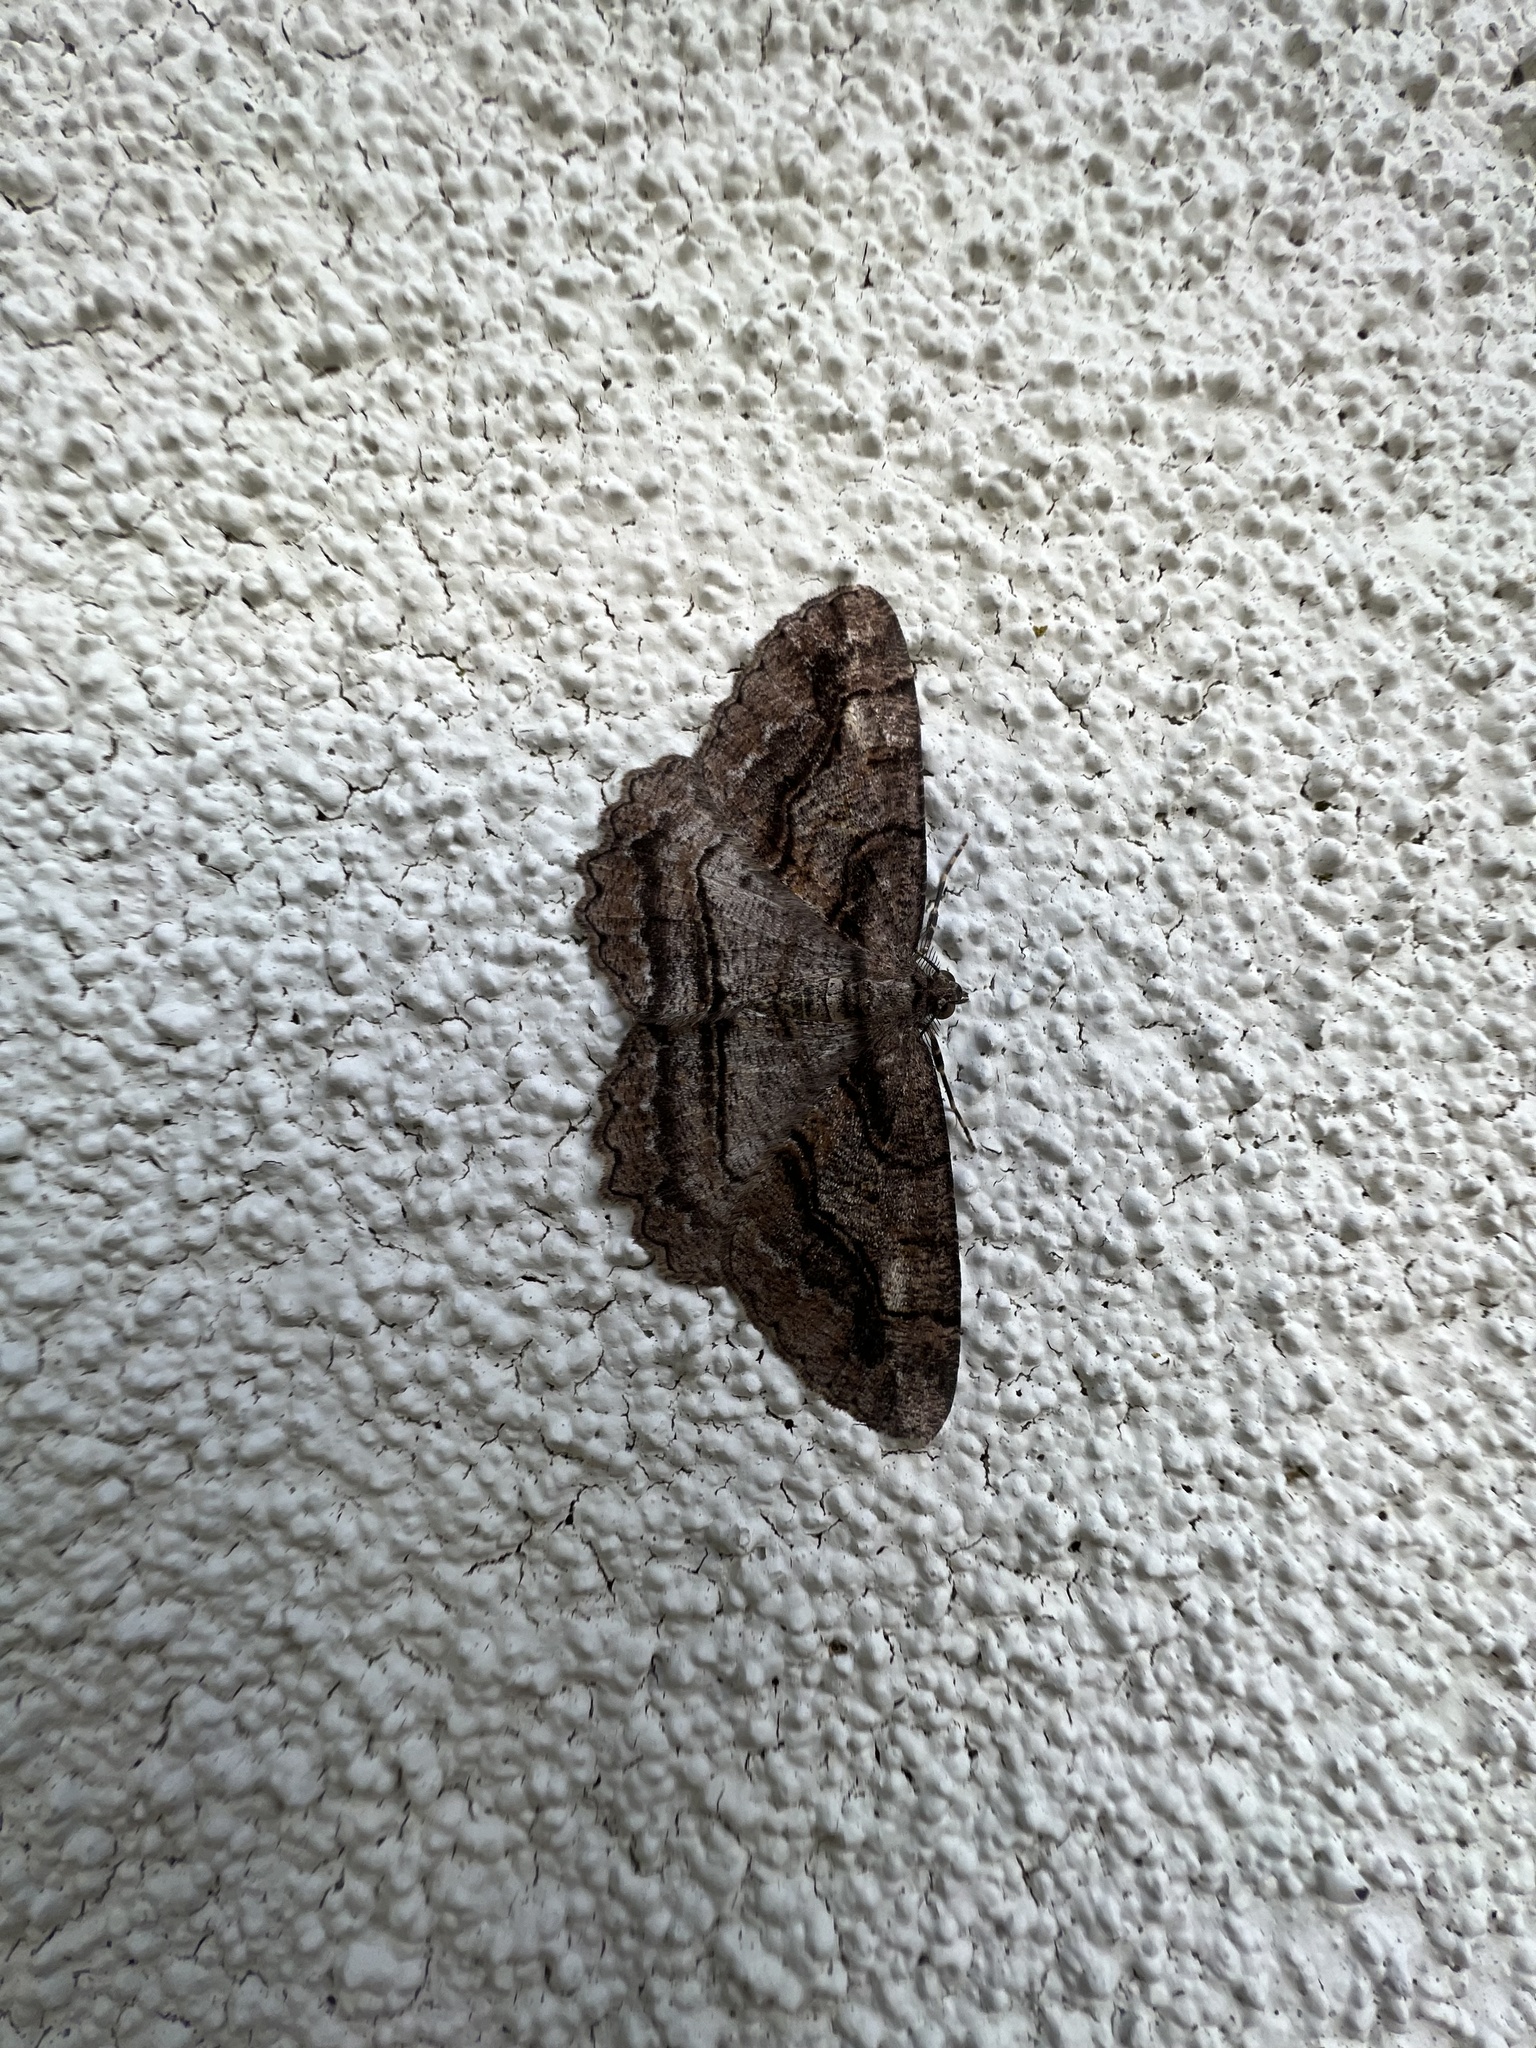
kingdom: Animalia
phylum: Arthropoda
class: Insecta
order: Lepidoptera
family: Geometridae
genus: Neoalcis
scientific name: Neoalcis californiaria
